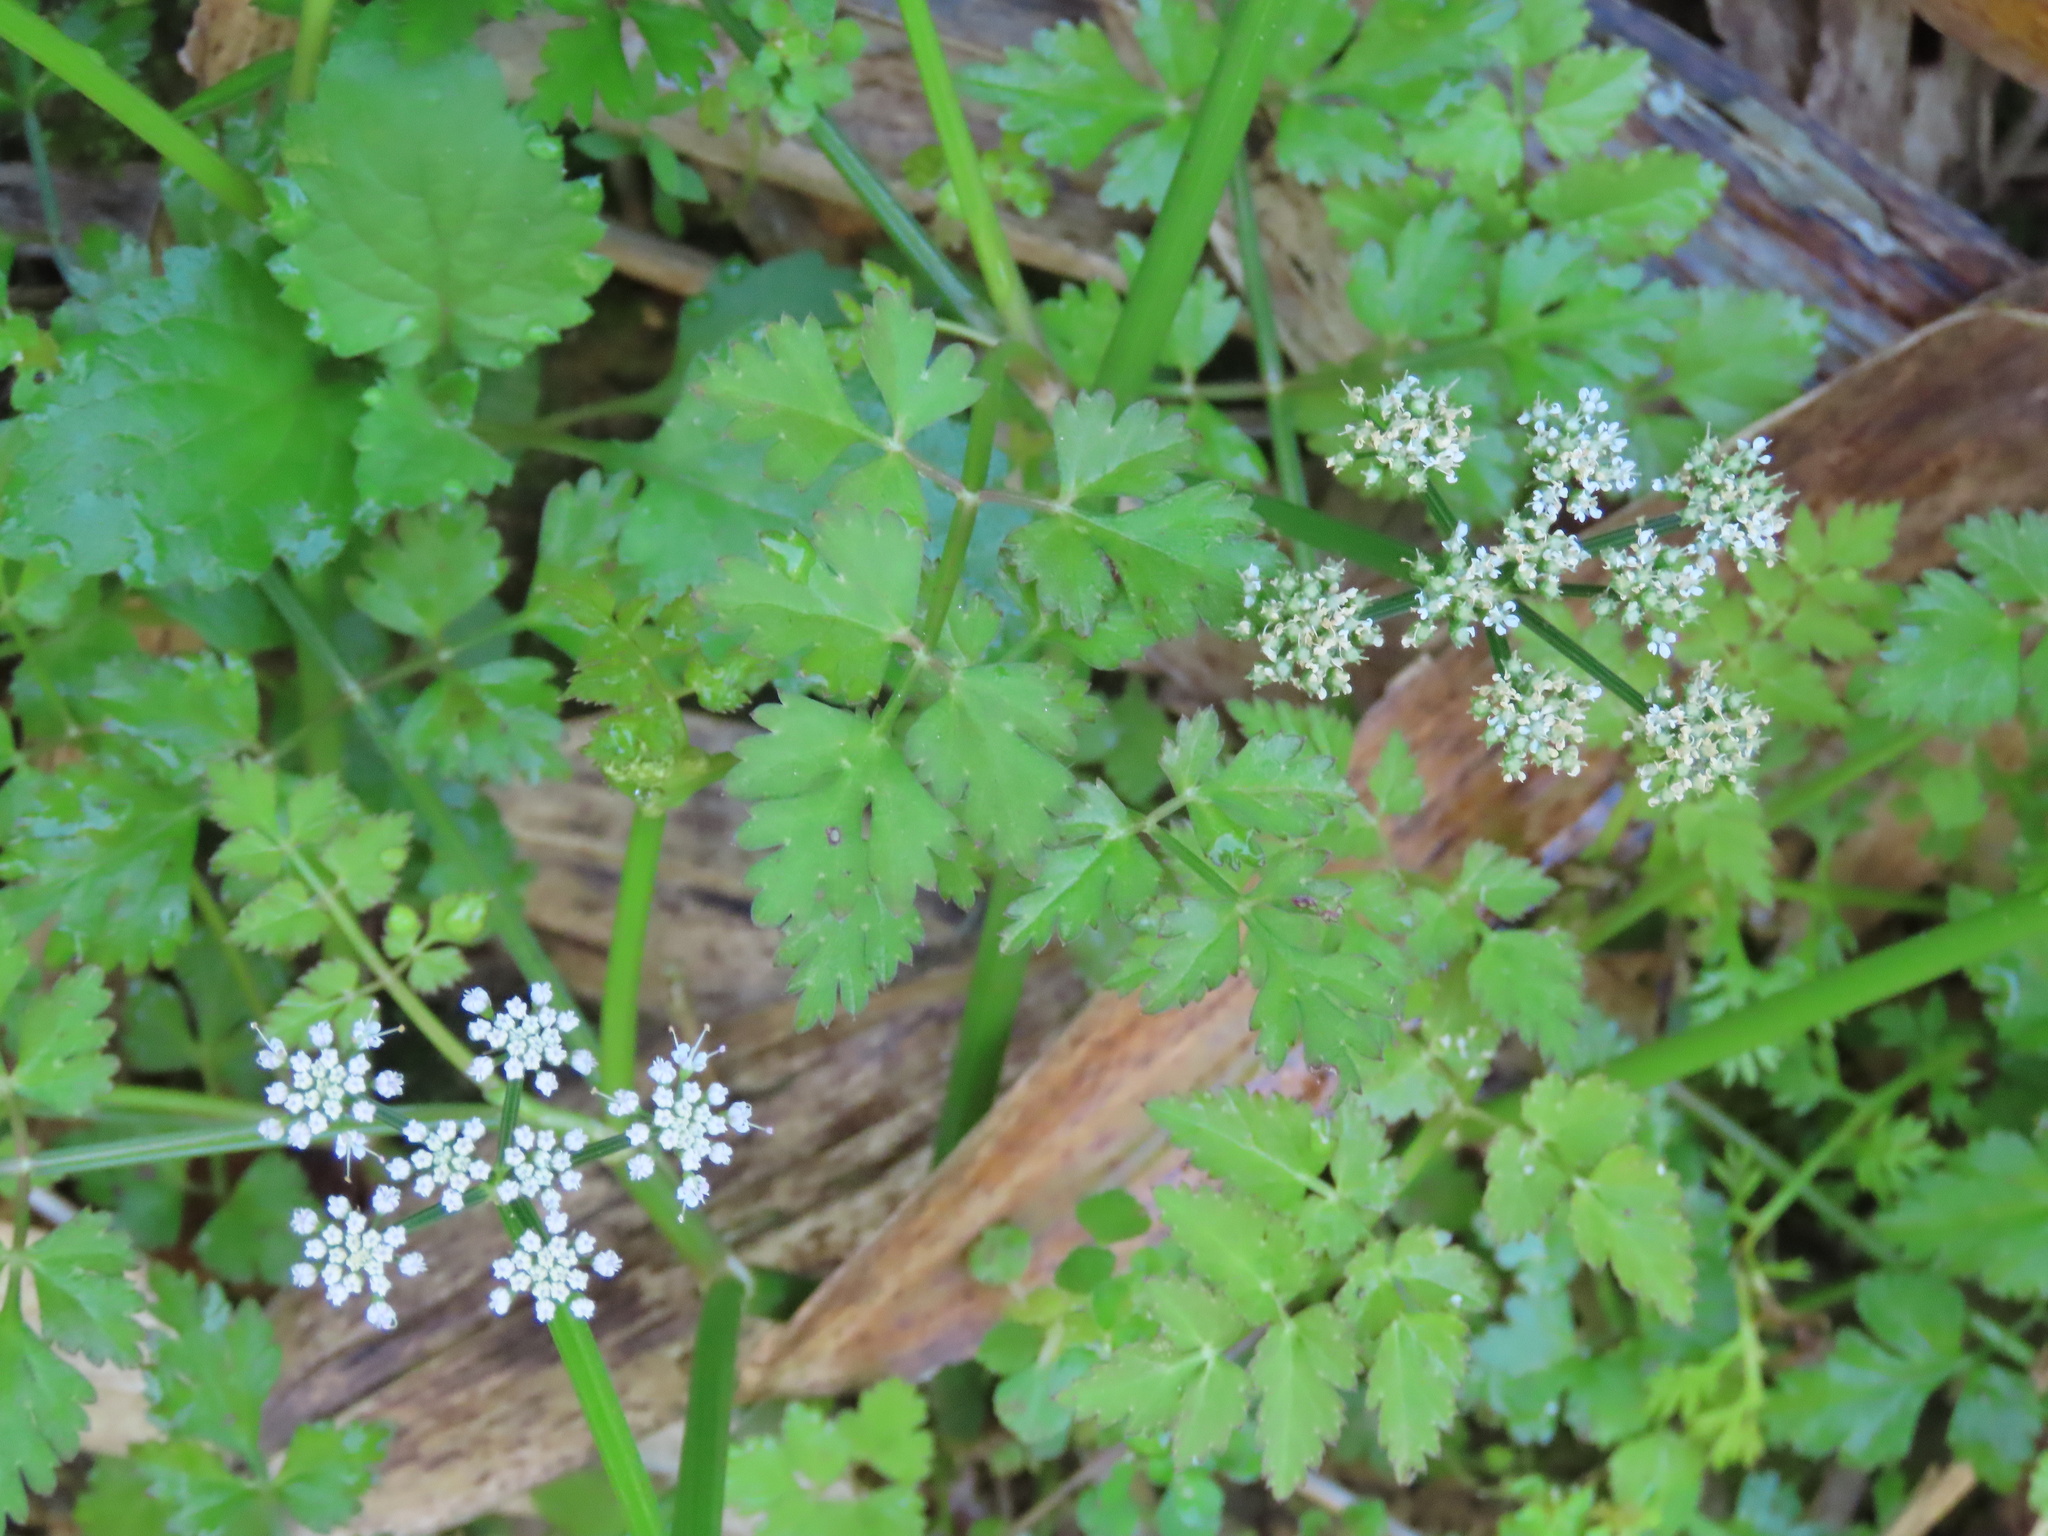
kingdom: Plantae
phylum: Tracheophyta
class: Magnoliopsida
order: Apiales
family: Apiaceae
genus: Oenanthe
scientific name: Oenanthe javanica
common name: Java water-dropwort
